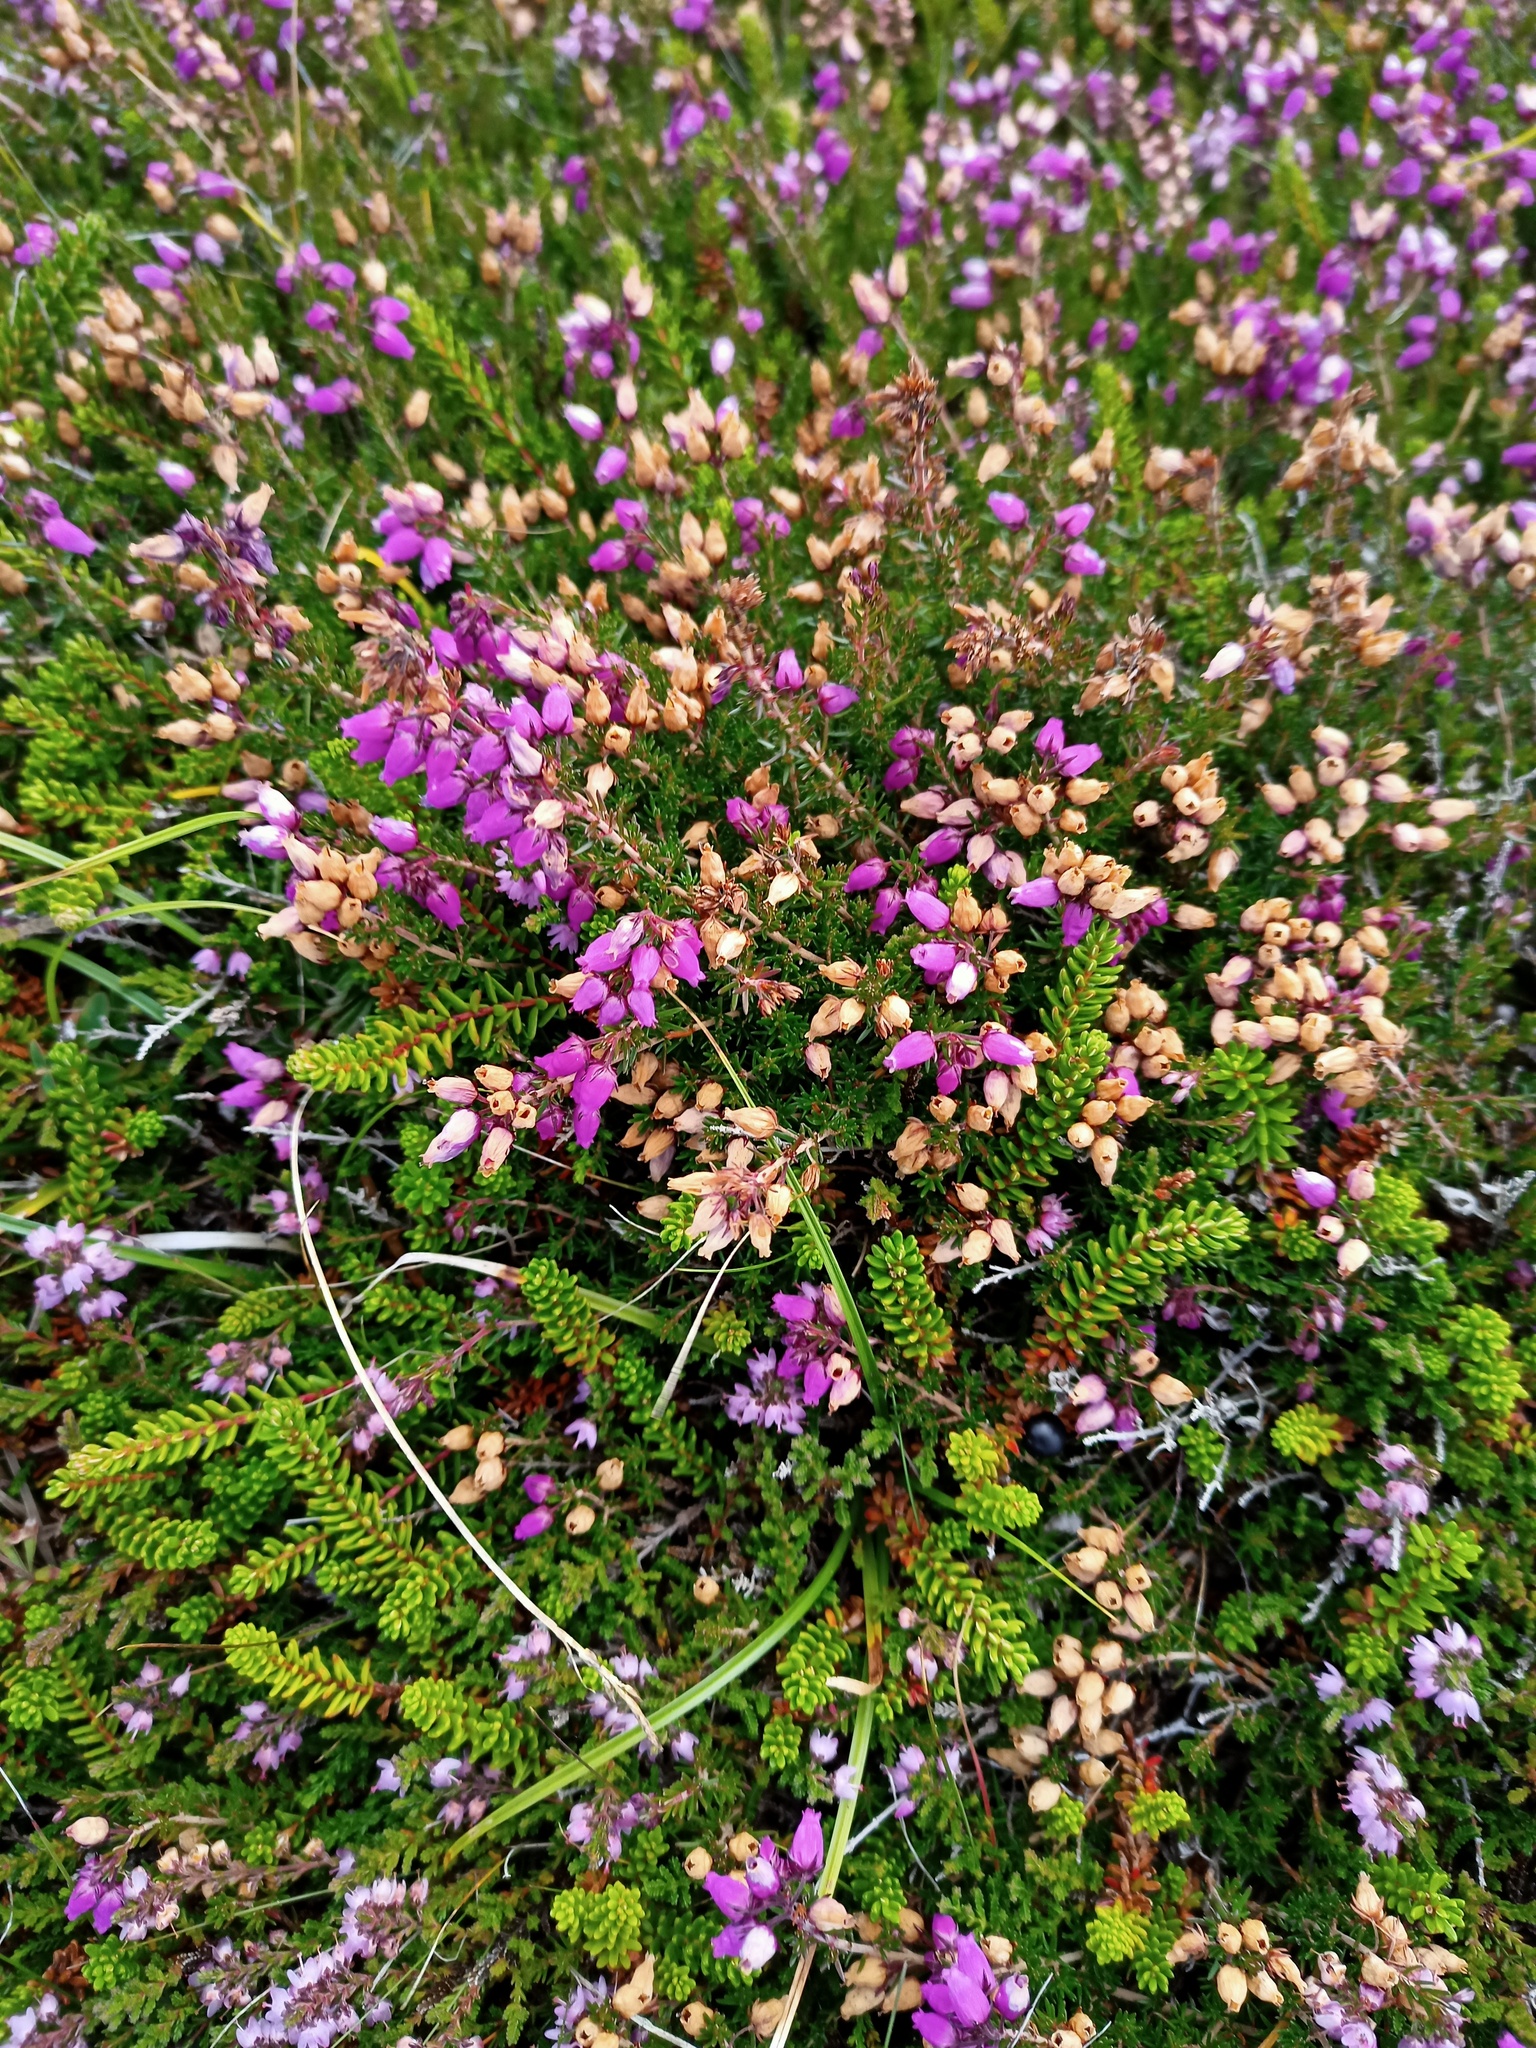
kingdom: Plantae
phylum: Tracheophyta
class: Magnoliopsida
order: Ericales
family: Ericaceae
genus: Erica
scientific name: Erica cinerea
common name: Bell heather
